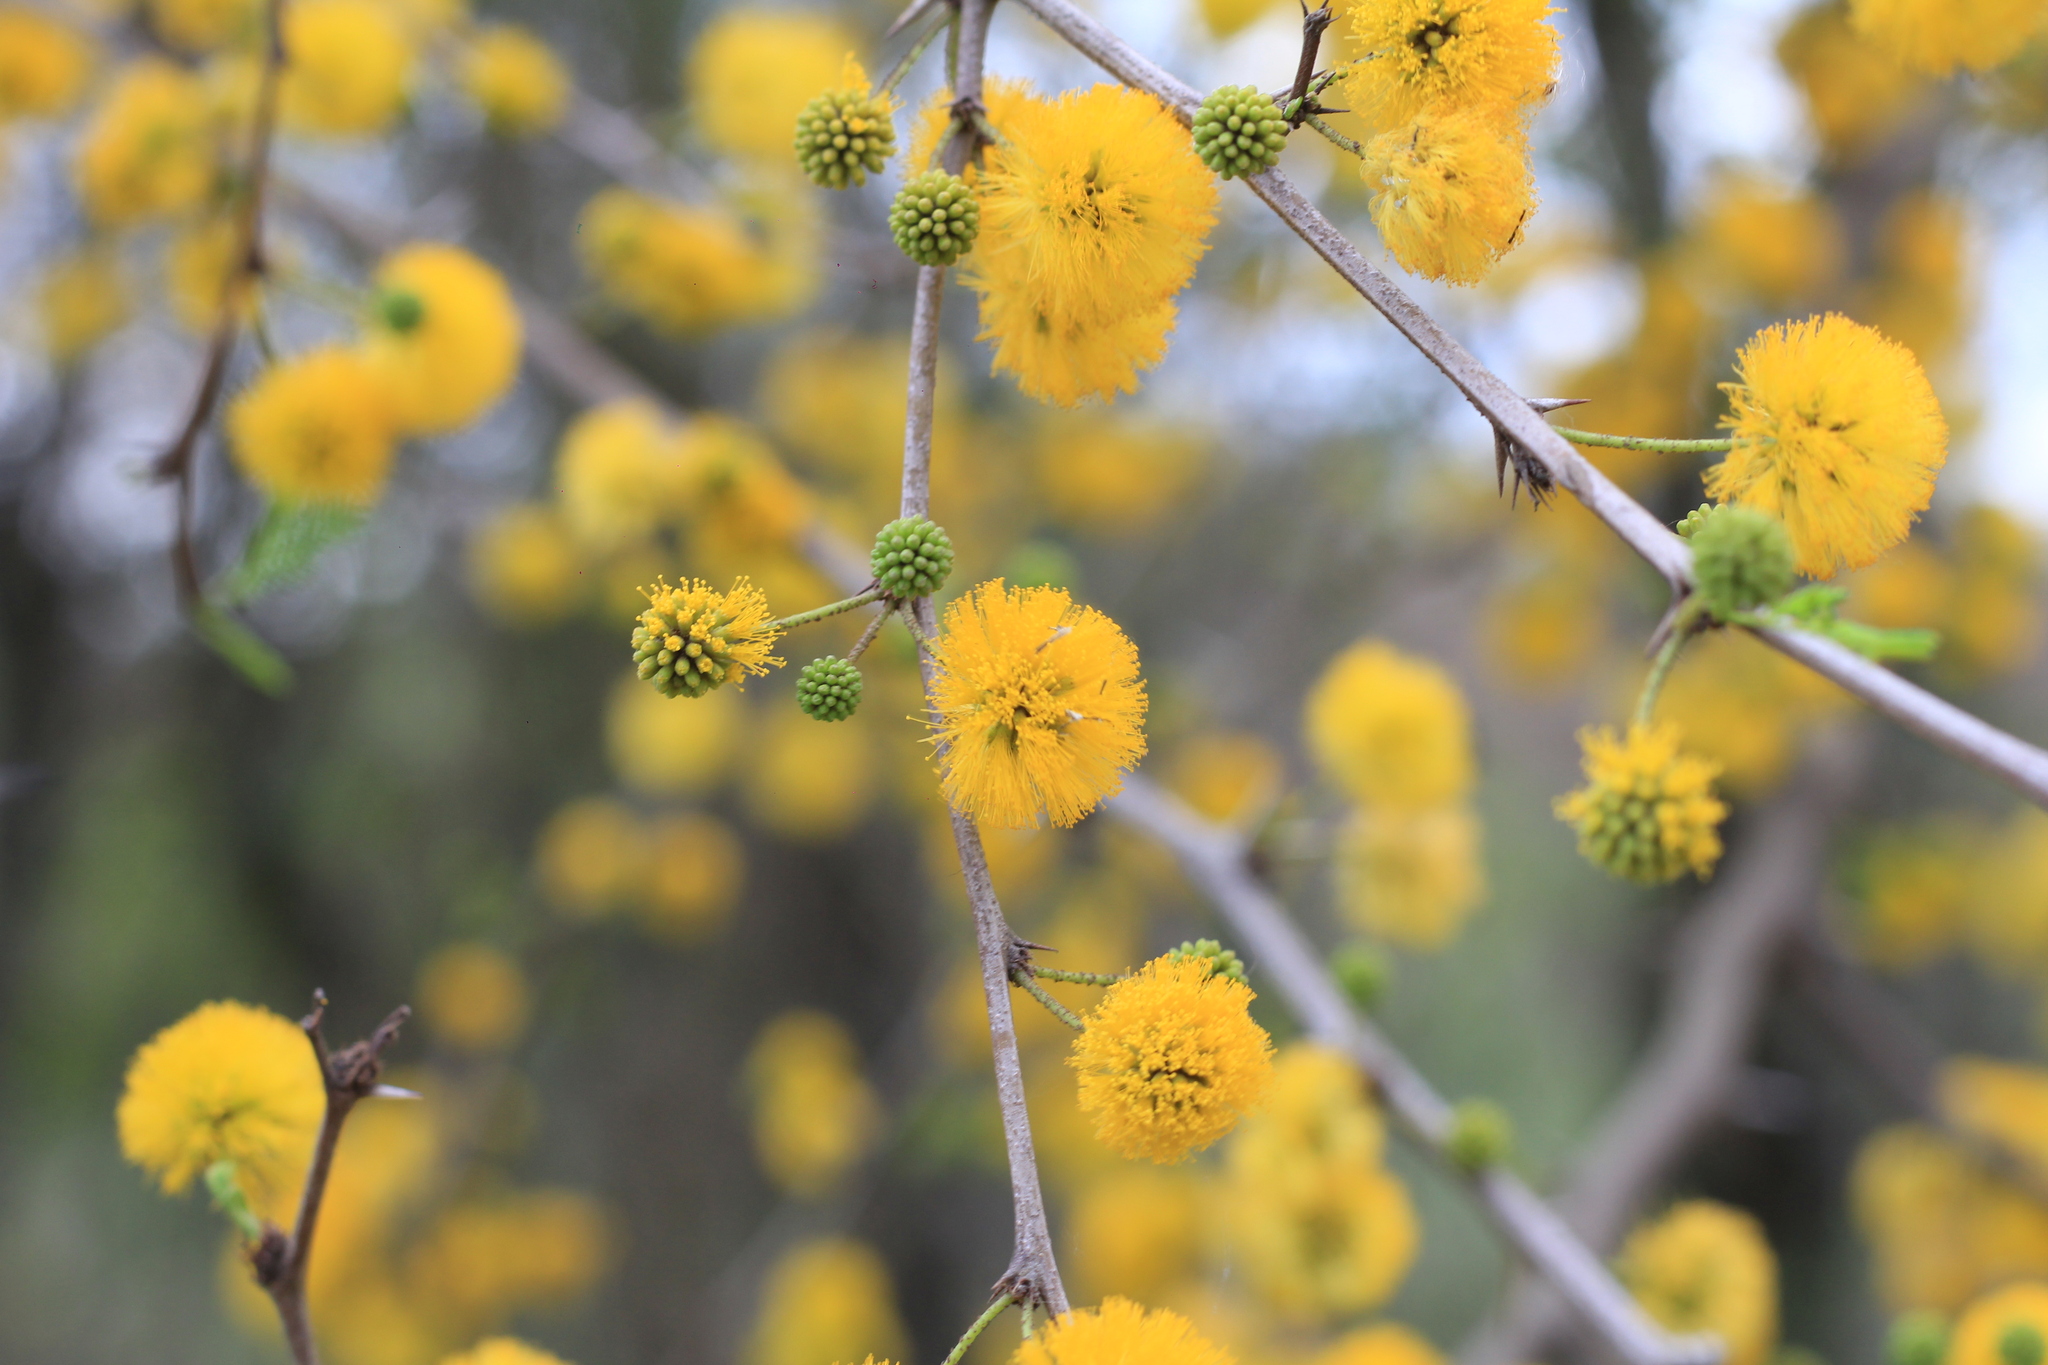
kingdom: Plantae
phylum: Tracheophyta
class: Magnoliopsida
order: Fabales
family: Fabaceae
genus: Vachellia
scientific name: Vachellia caven
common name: Roman cassie
